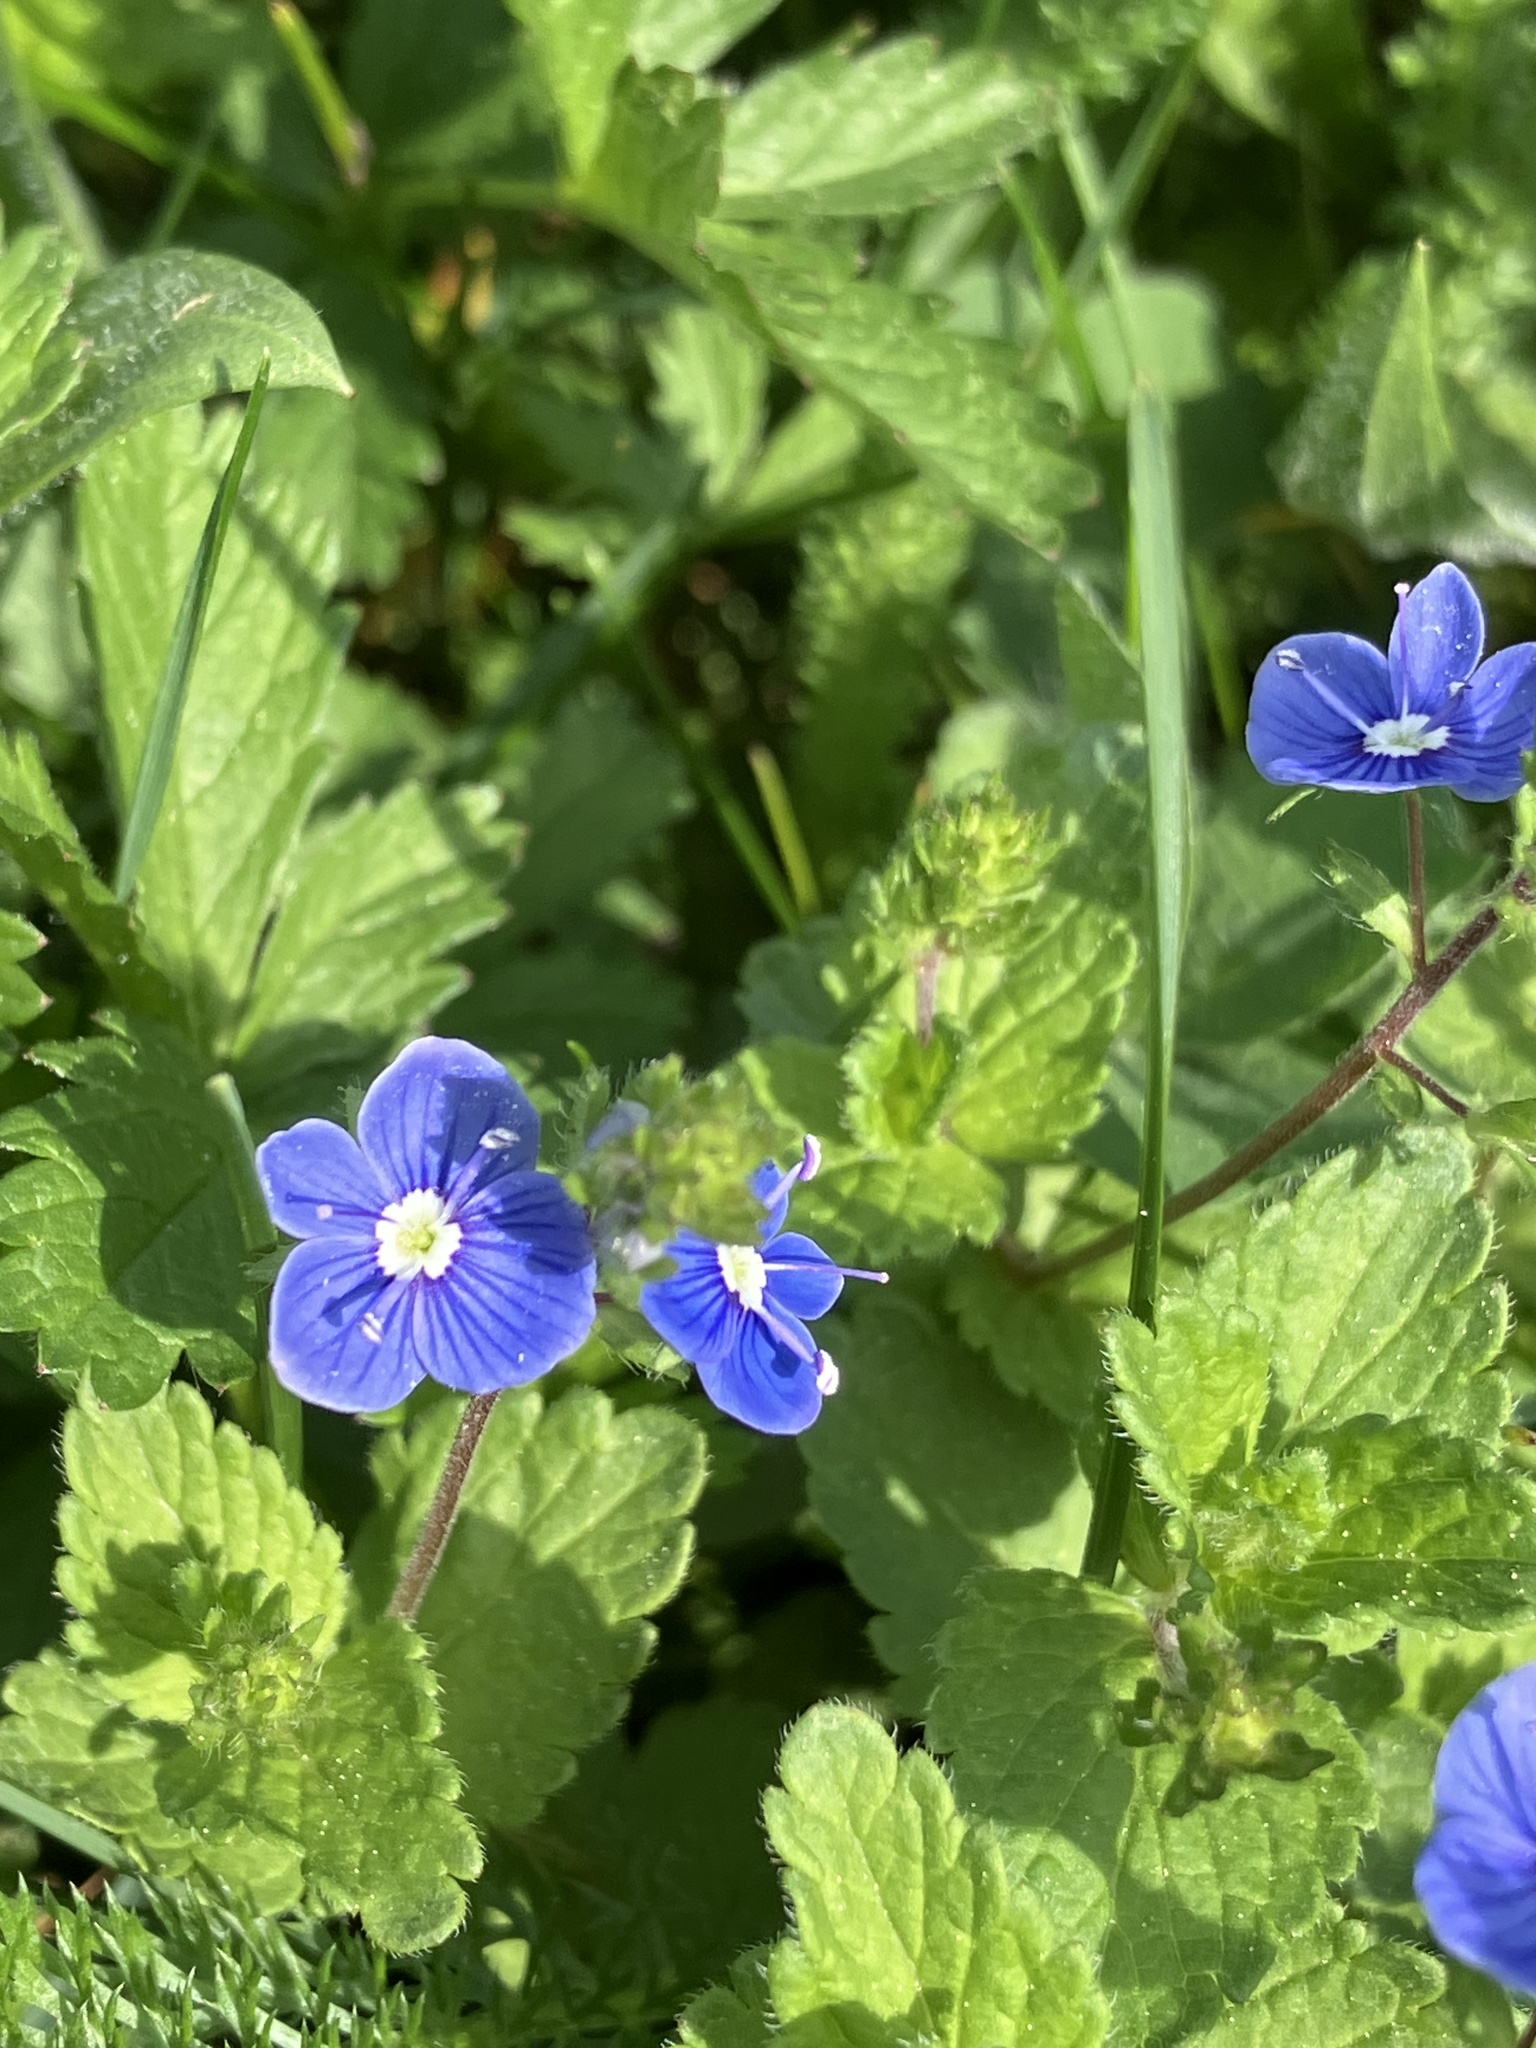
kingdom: Plantae
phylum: Tracheophyta
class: Magnoliopsida
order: Lamiales
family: Plantaginaceae
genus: Veronica
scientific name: Veronica chamaedrys
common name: Germander speedwell
